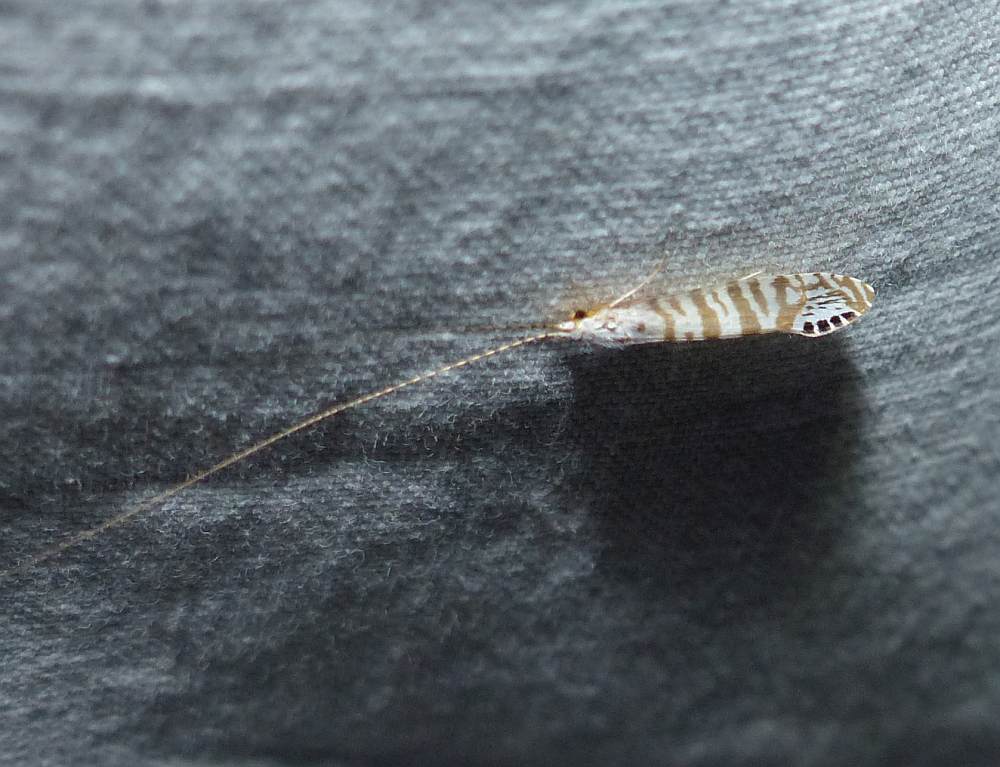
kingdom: Animalia
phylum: Arthropoda
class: Insecta
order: Trichoptera
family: Leptoceridae
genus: Nectopsyche
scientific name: Nectopsyche exquisita
